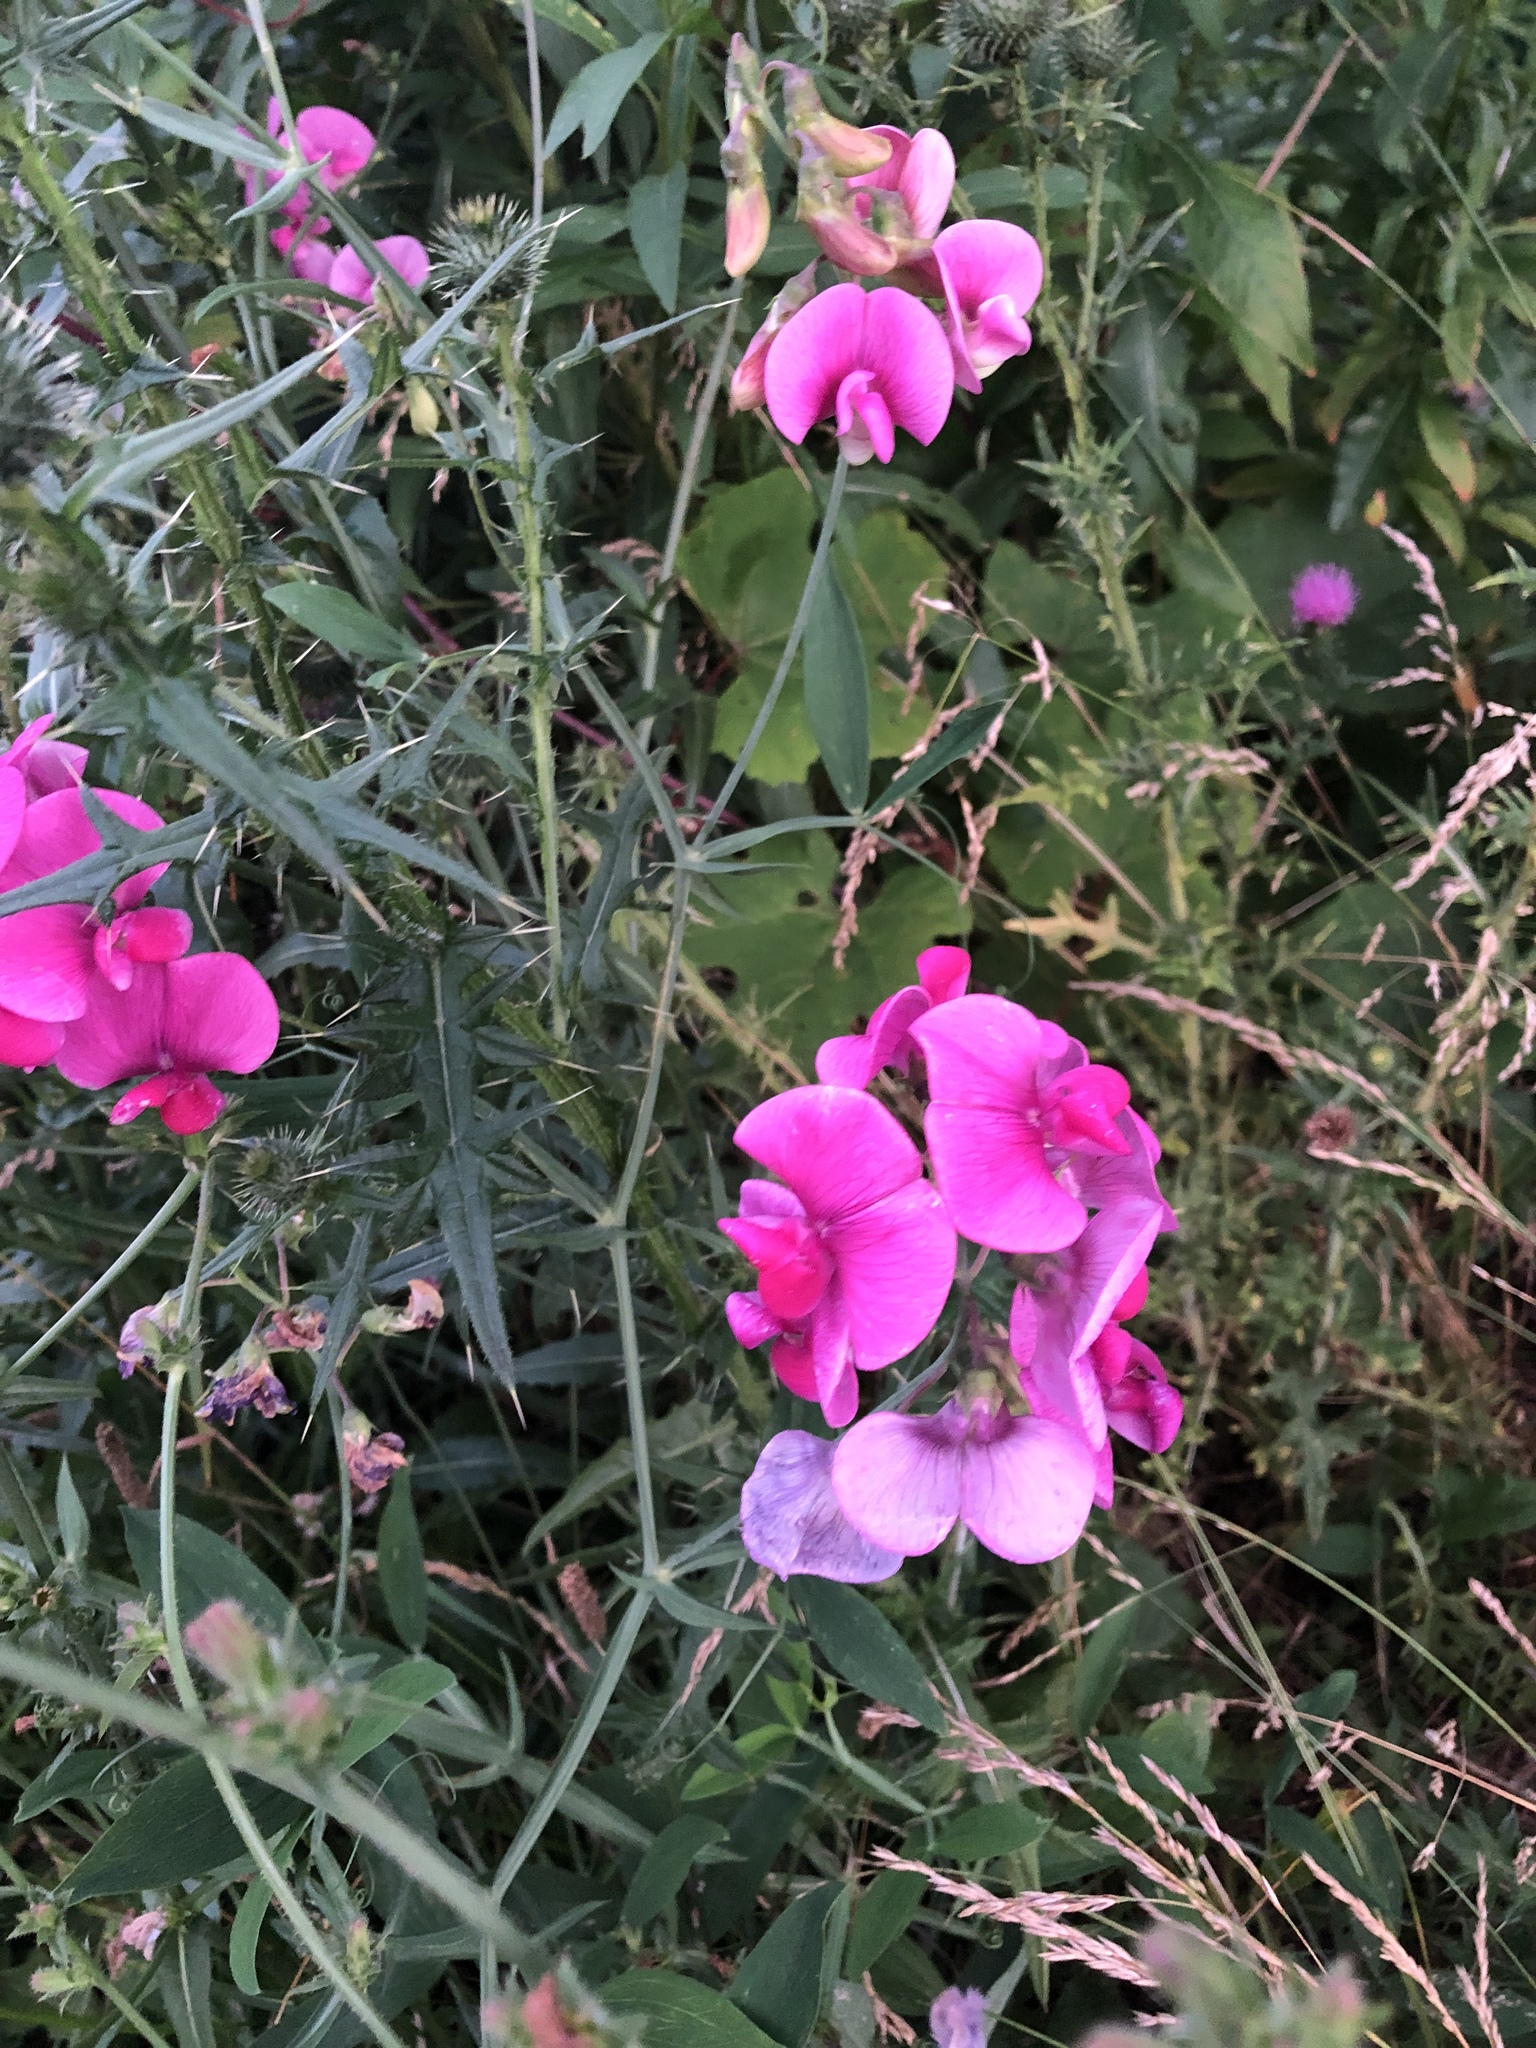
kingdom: Plantae
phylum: Tracheophyta
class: Magnoliopsida
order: Fabales
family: Fabaceae
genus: Lathyrus
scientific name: Lathyrus latifolius
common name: Perennial pea
